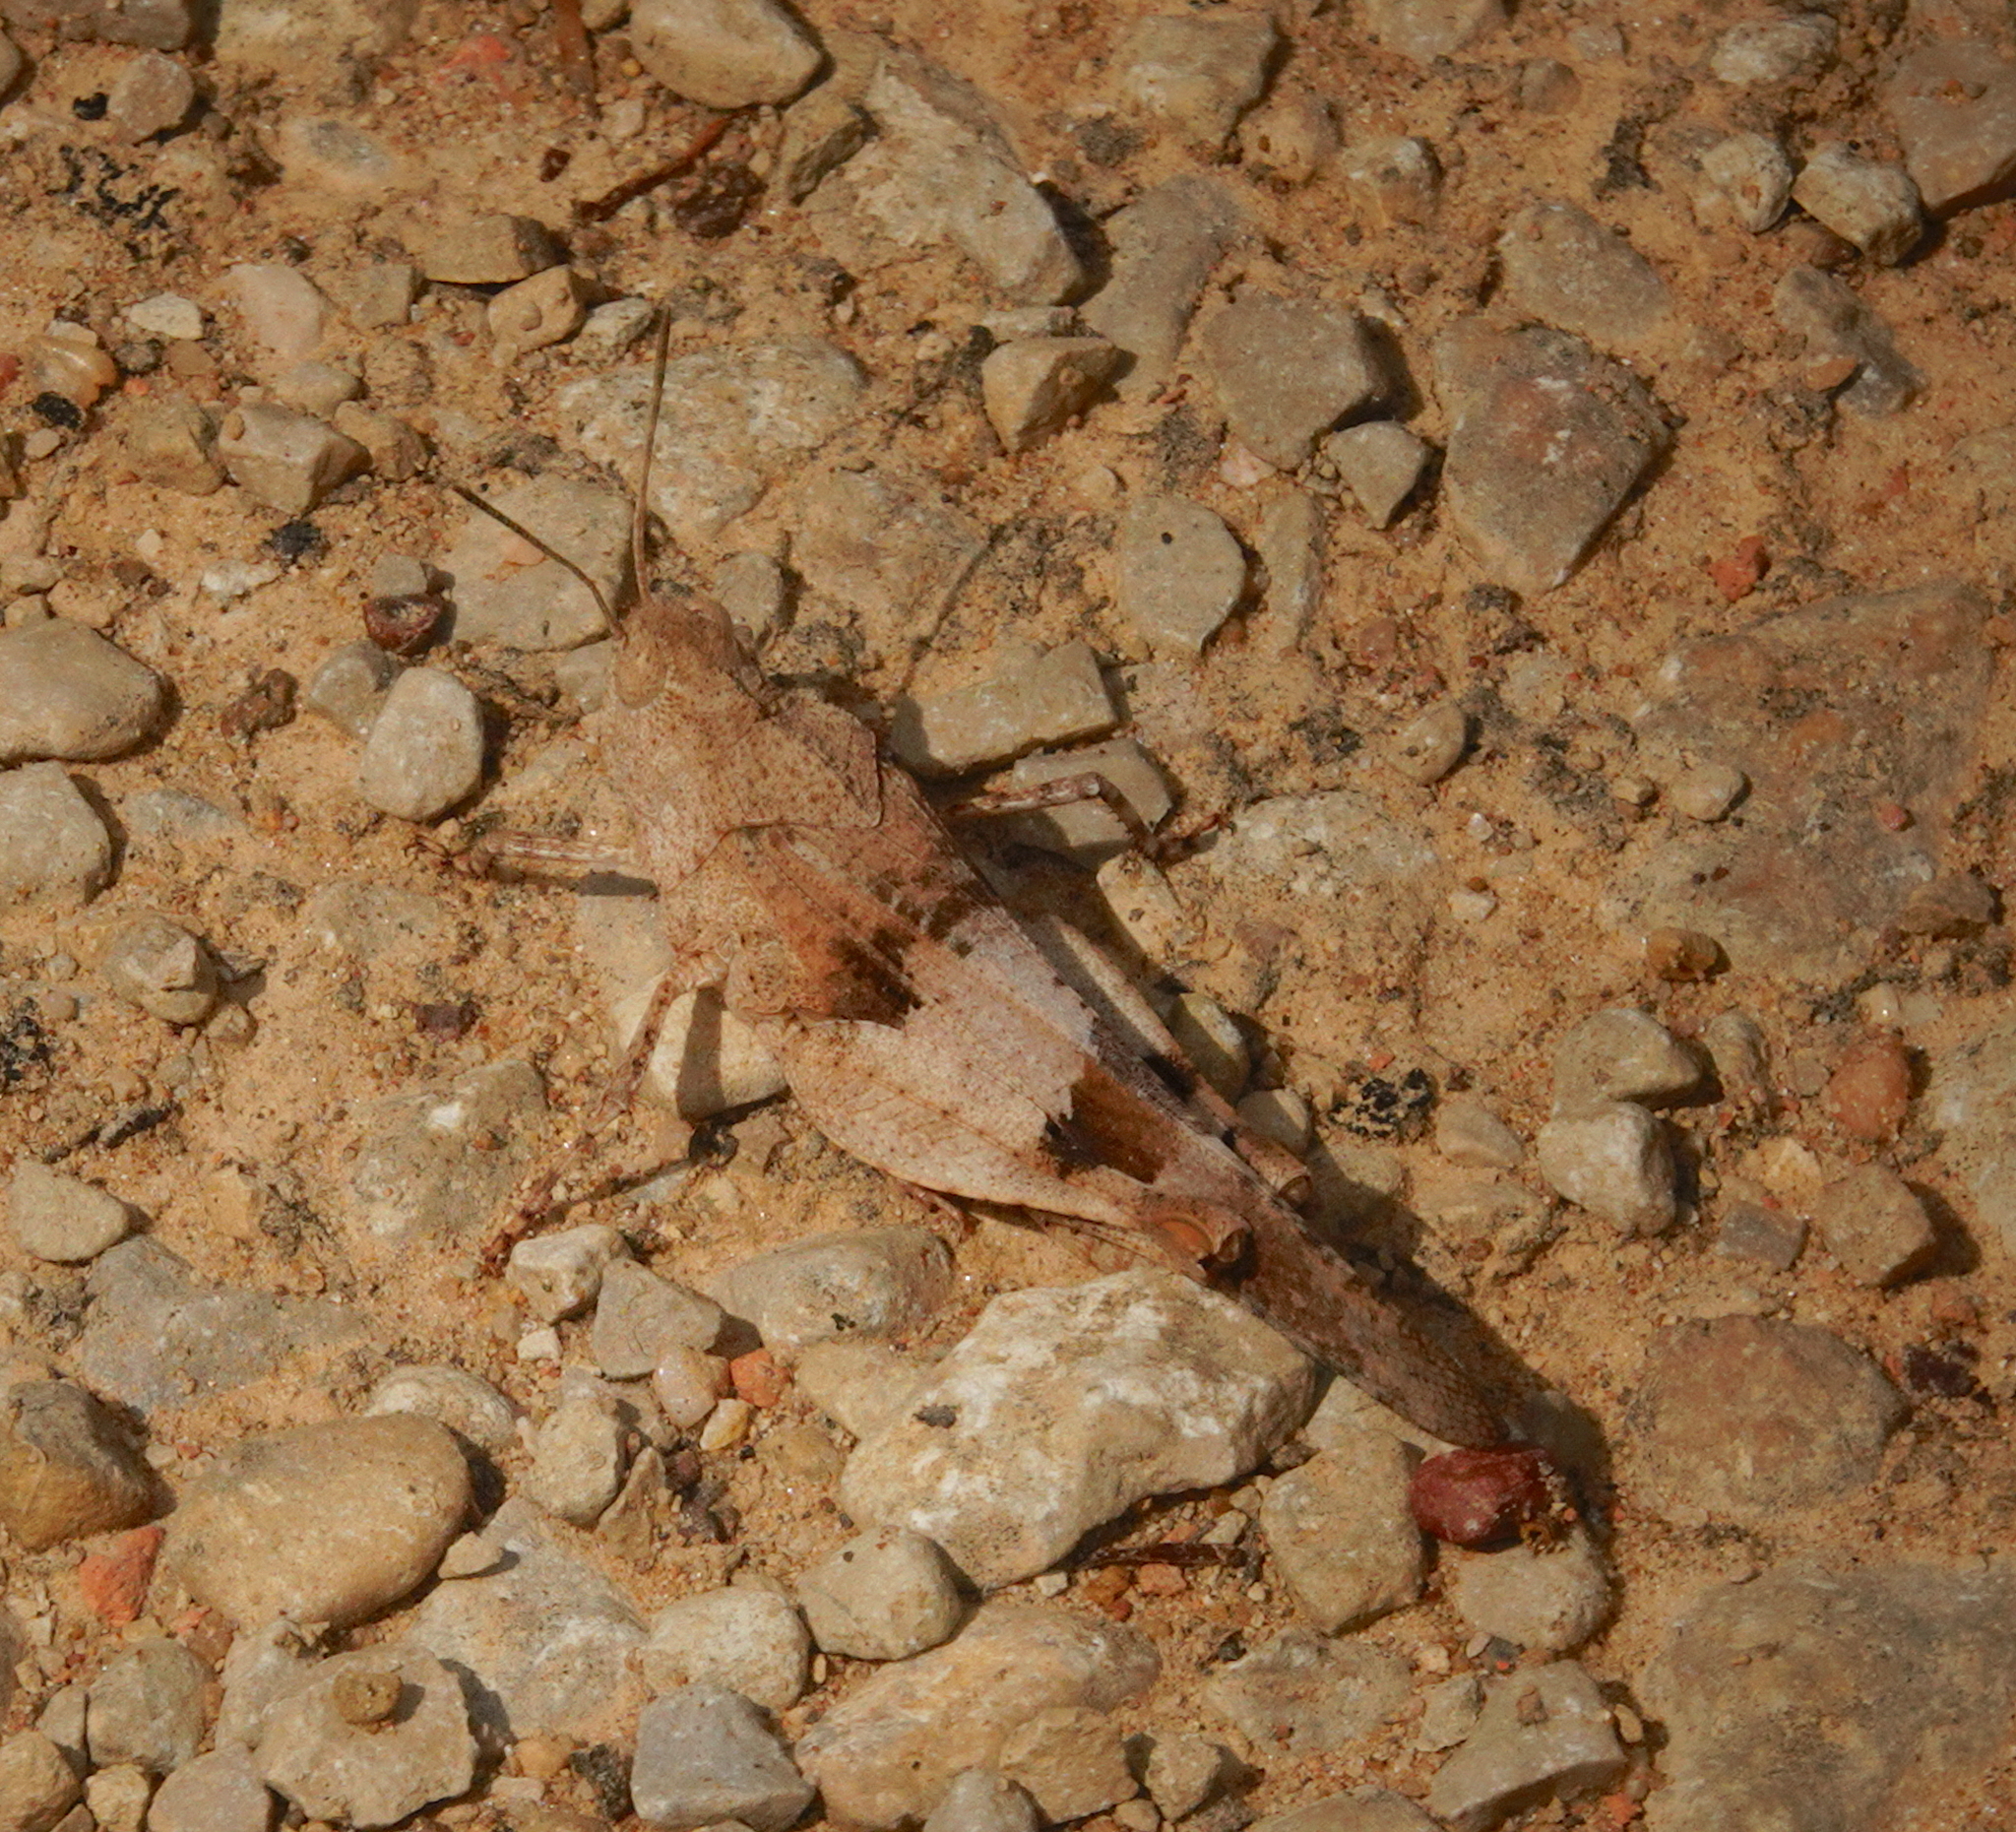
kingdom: Animalia
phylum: Arthropoda
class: Insecta
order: Orthoptera
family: Acrididae
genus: Oedipoda
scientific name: Oedipoda caerulescens
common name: Blue-winged grasshopper
